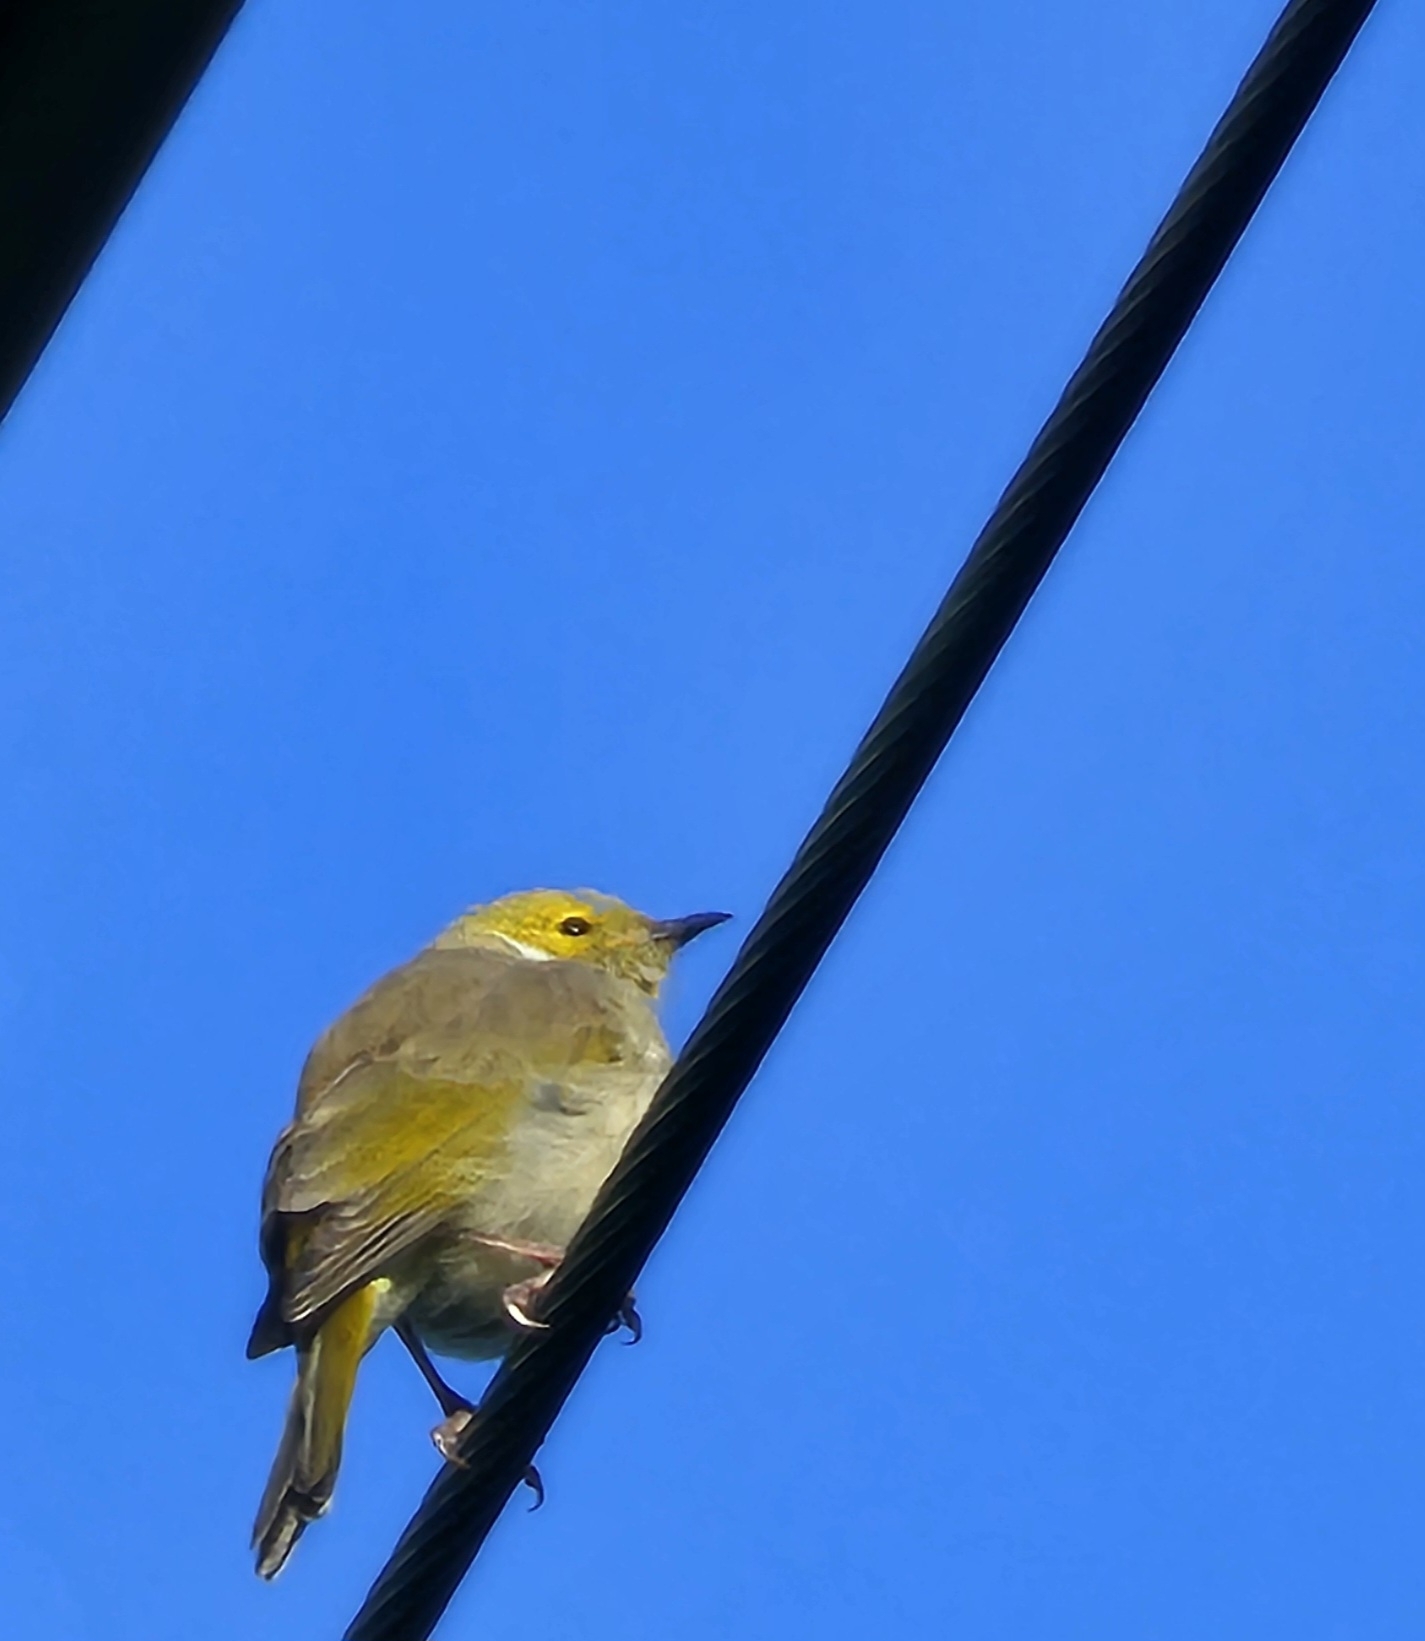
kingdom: Animalia
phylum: Chordata
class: Aves
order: Passeriformes
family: Meliphagidae
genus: Ptilotula
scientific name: Ptilotula penicillata
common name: White-plumed honeyeater
